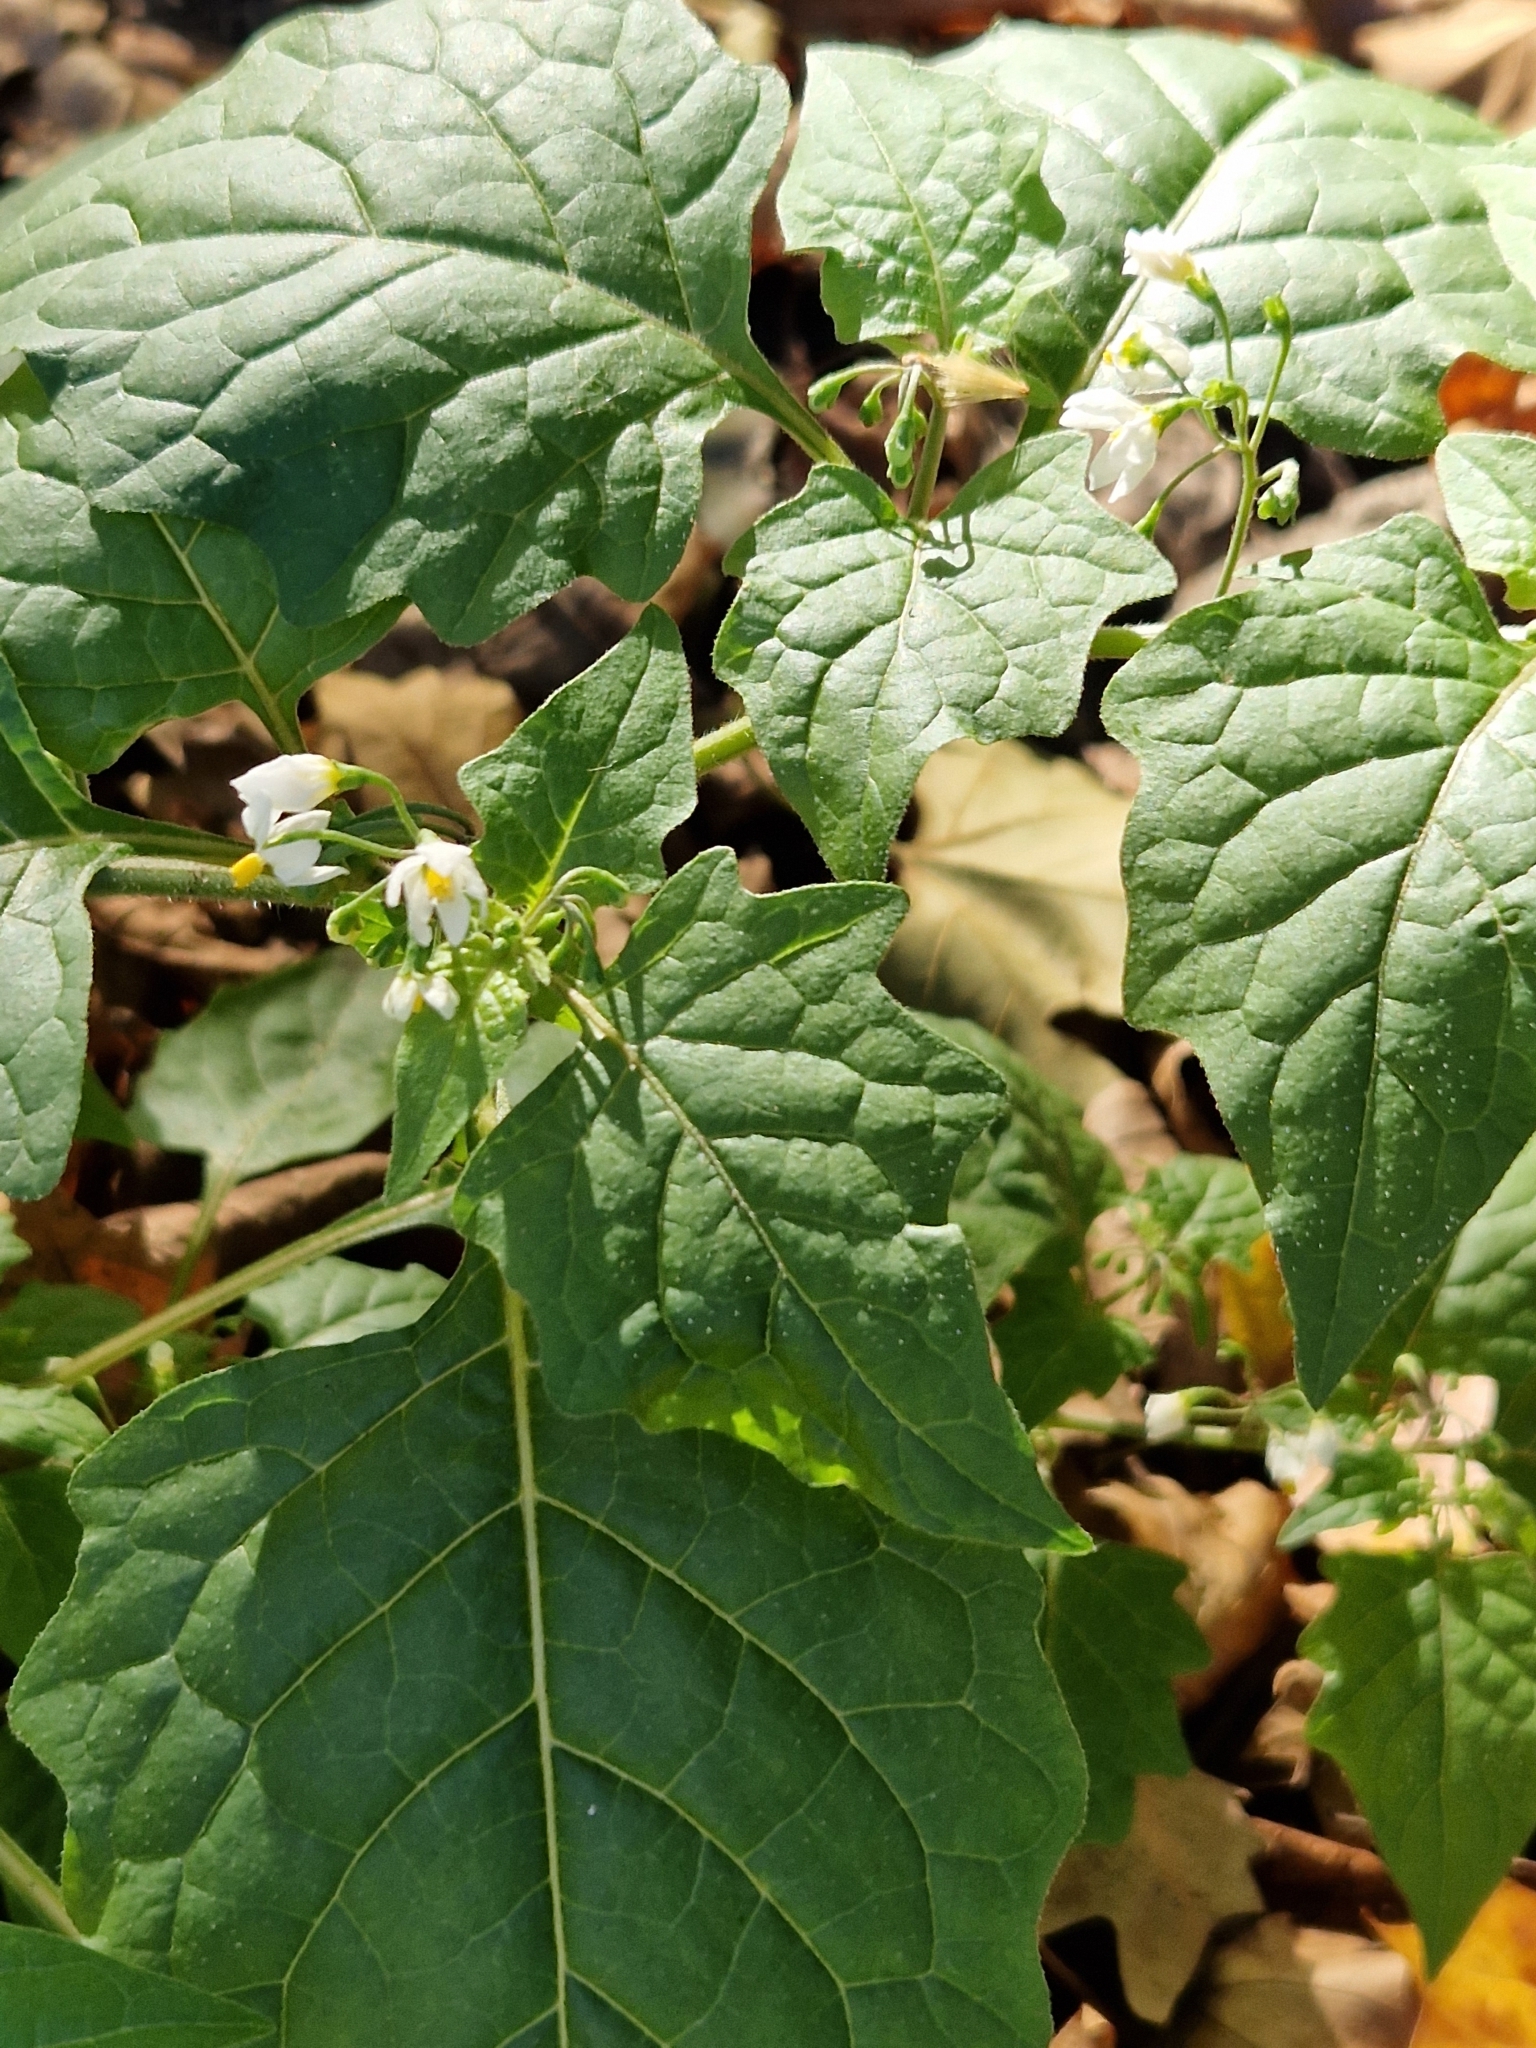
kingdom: Plantae
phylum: Tracheophyta
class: Magnoliopsida
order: Solanales
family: Solanaceae
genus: Solanum
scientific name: Solanum nigrum
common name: Black nightshade
